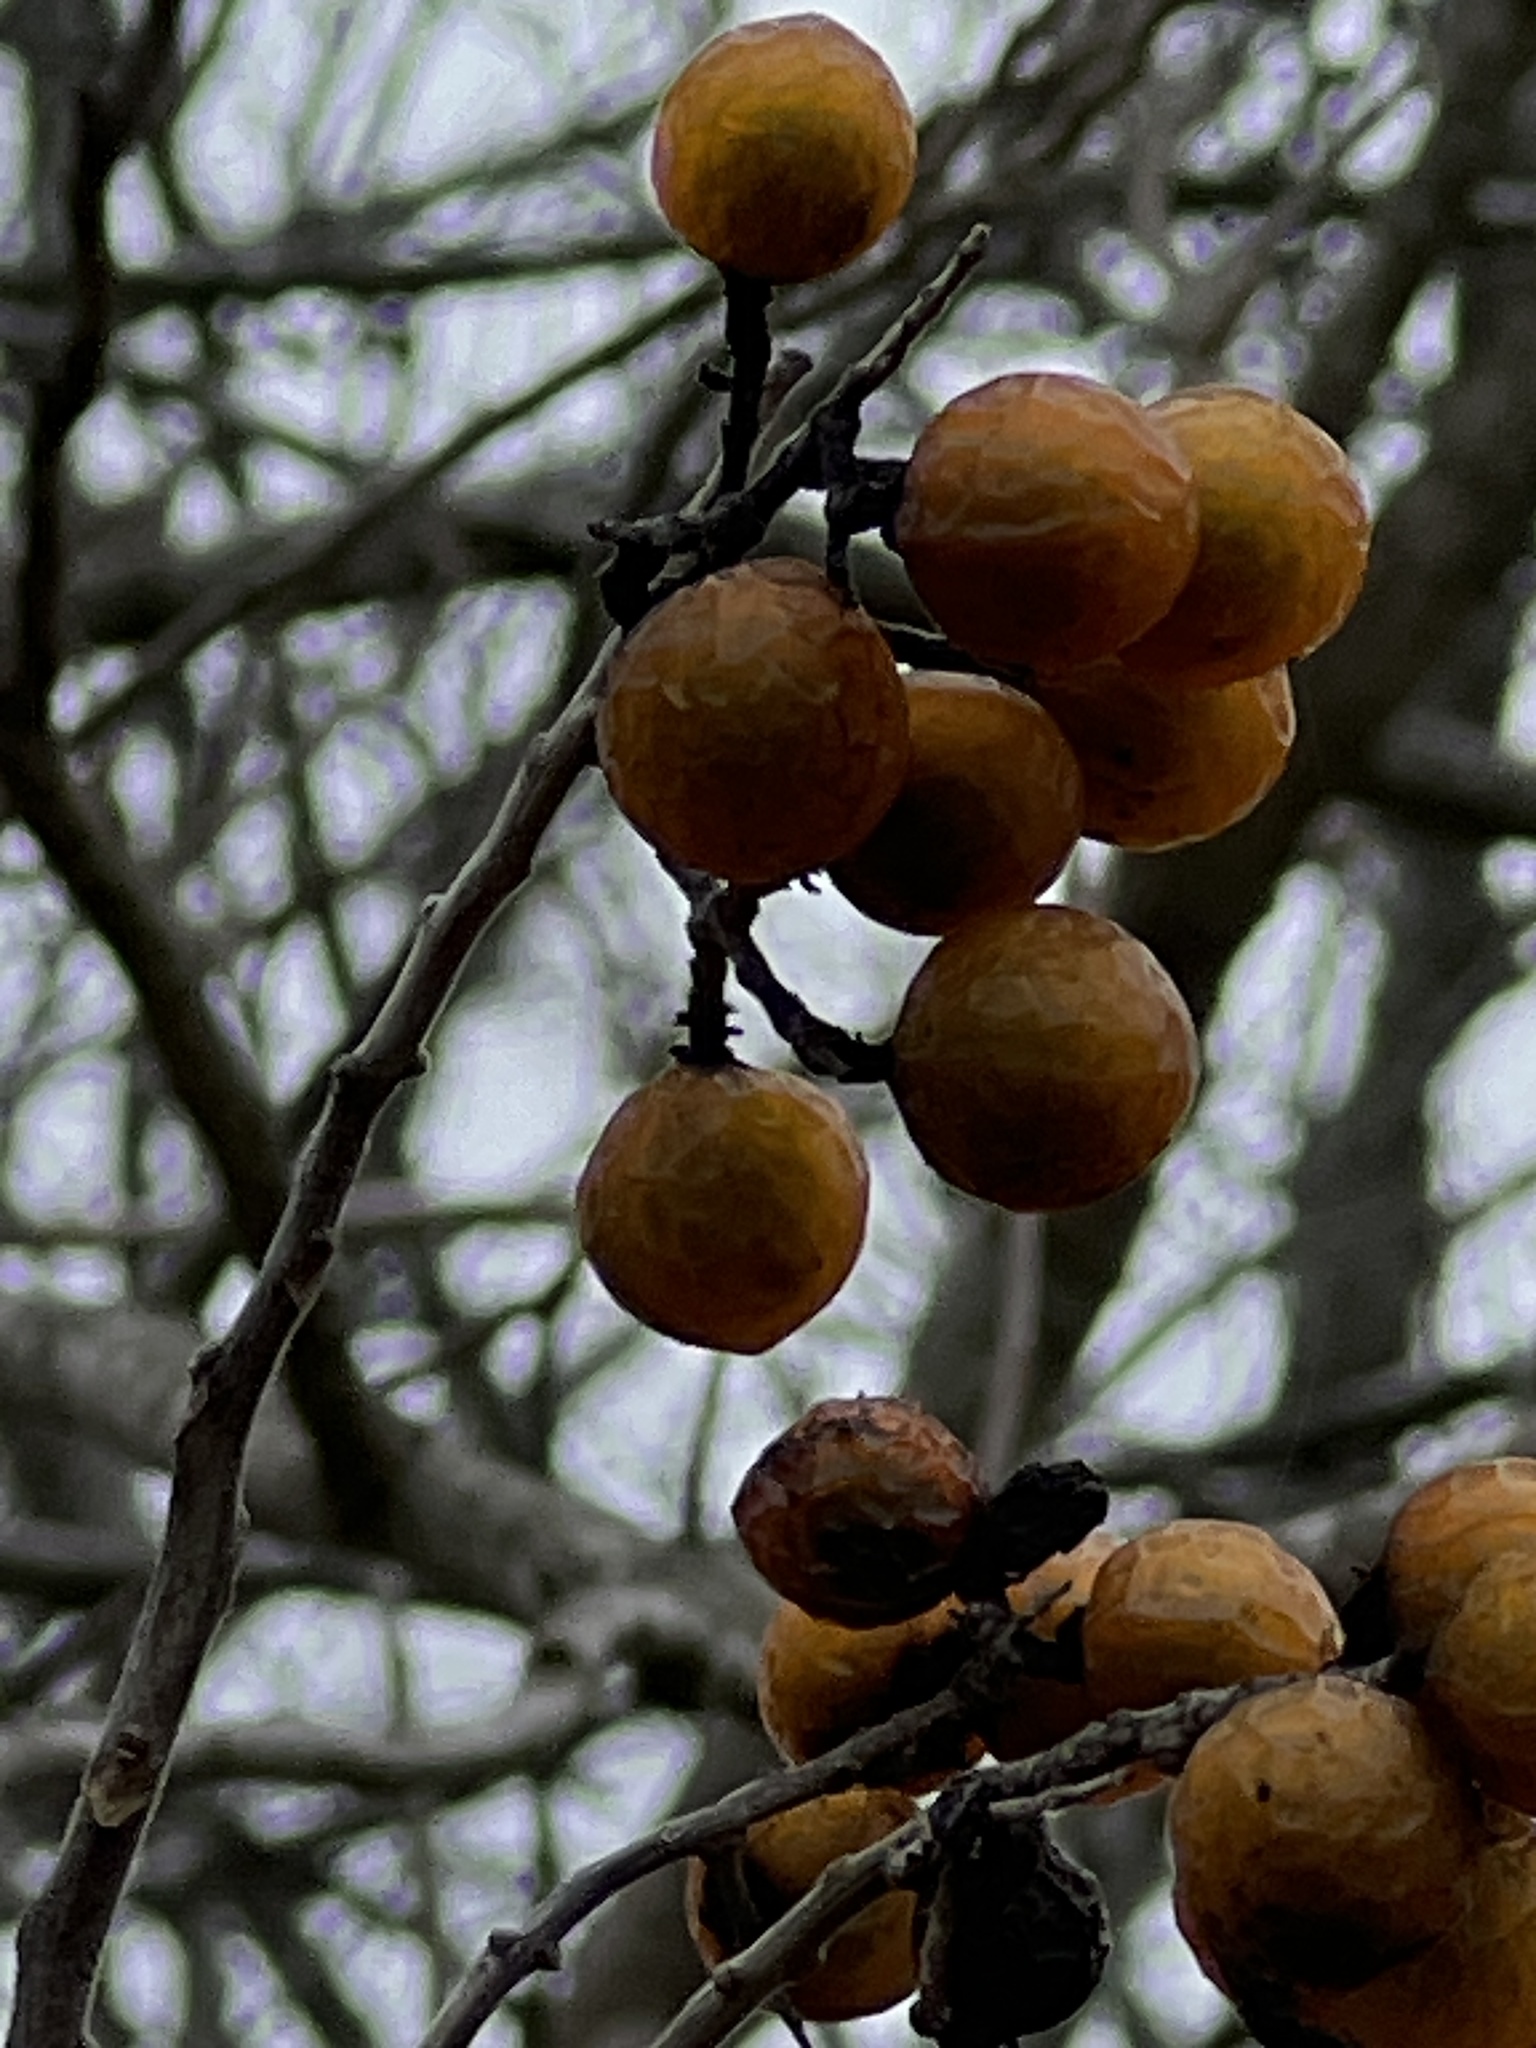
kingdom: Plantae
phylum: Tracheophyta
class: Magnoliopsida
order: Sapindales
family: Sapindaceae
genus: Sapindus
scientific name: Sapindus drummondii
